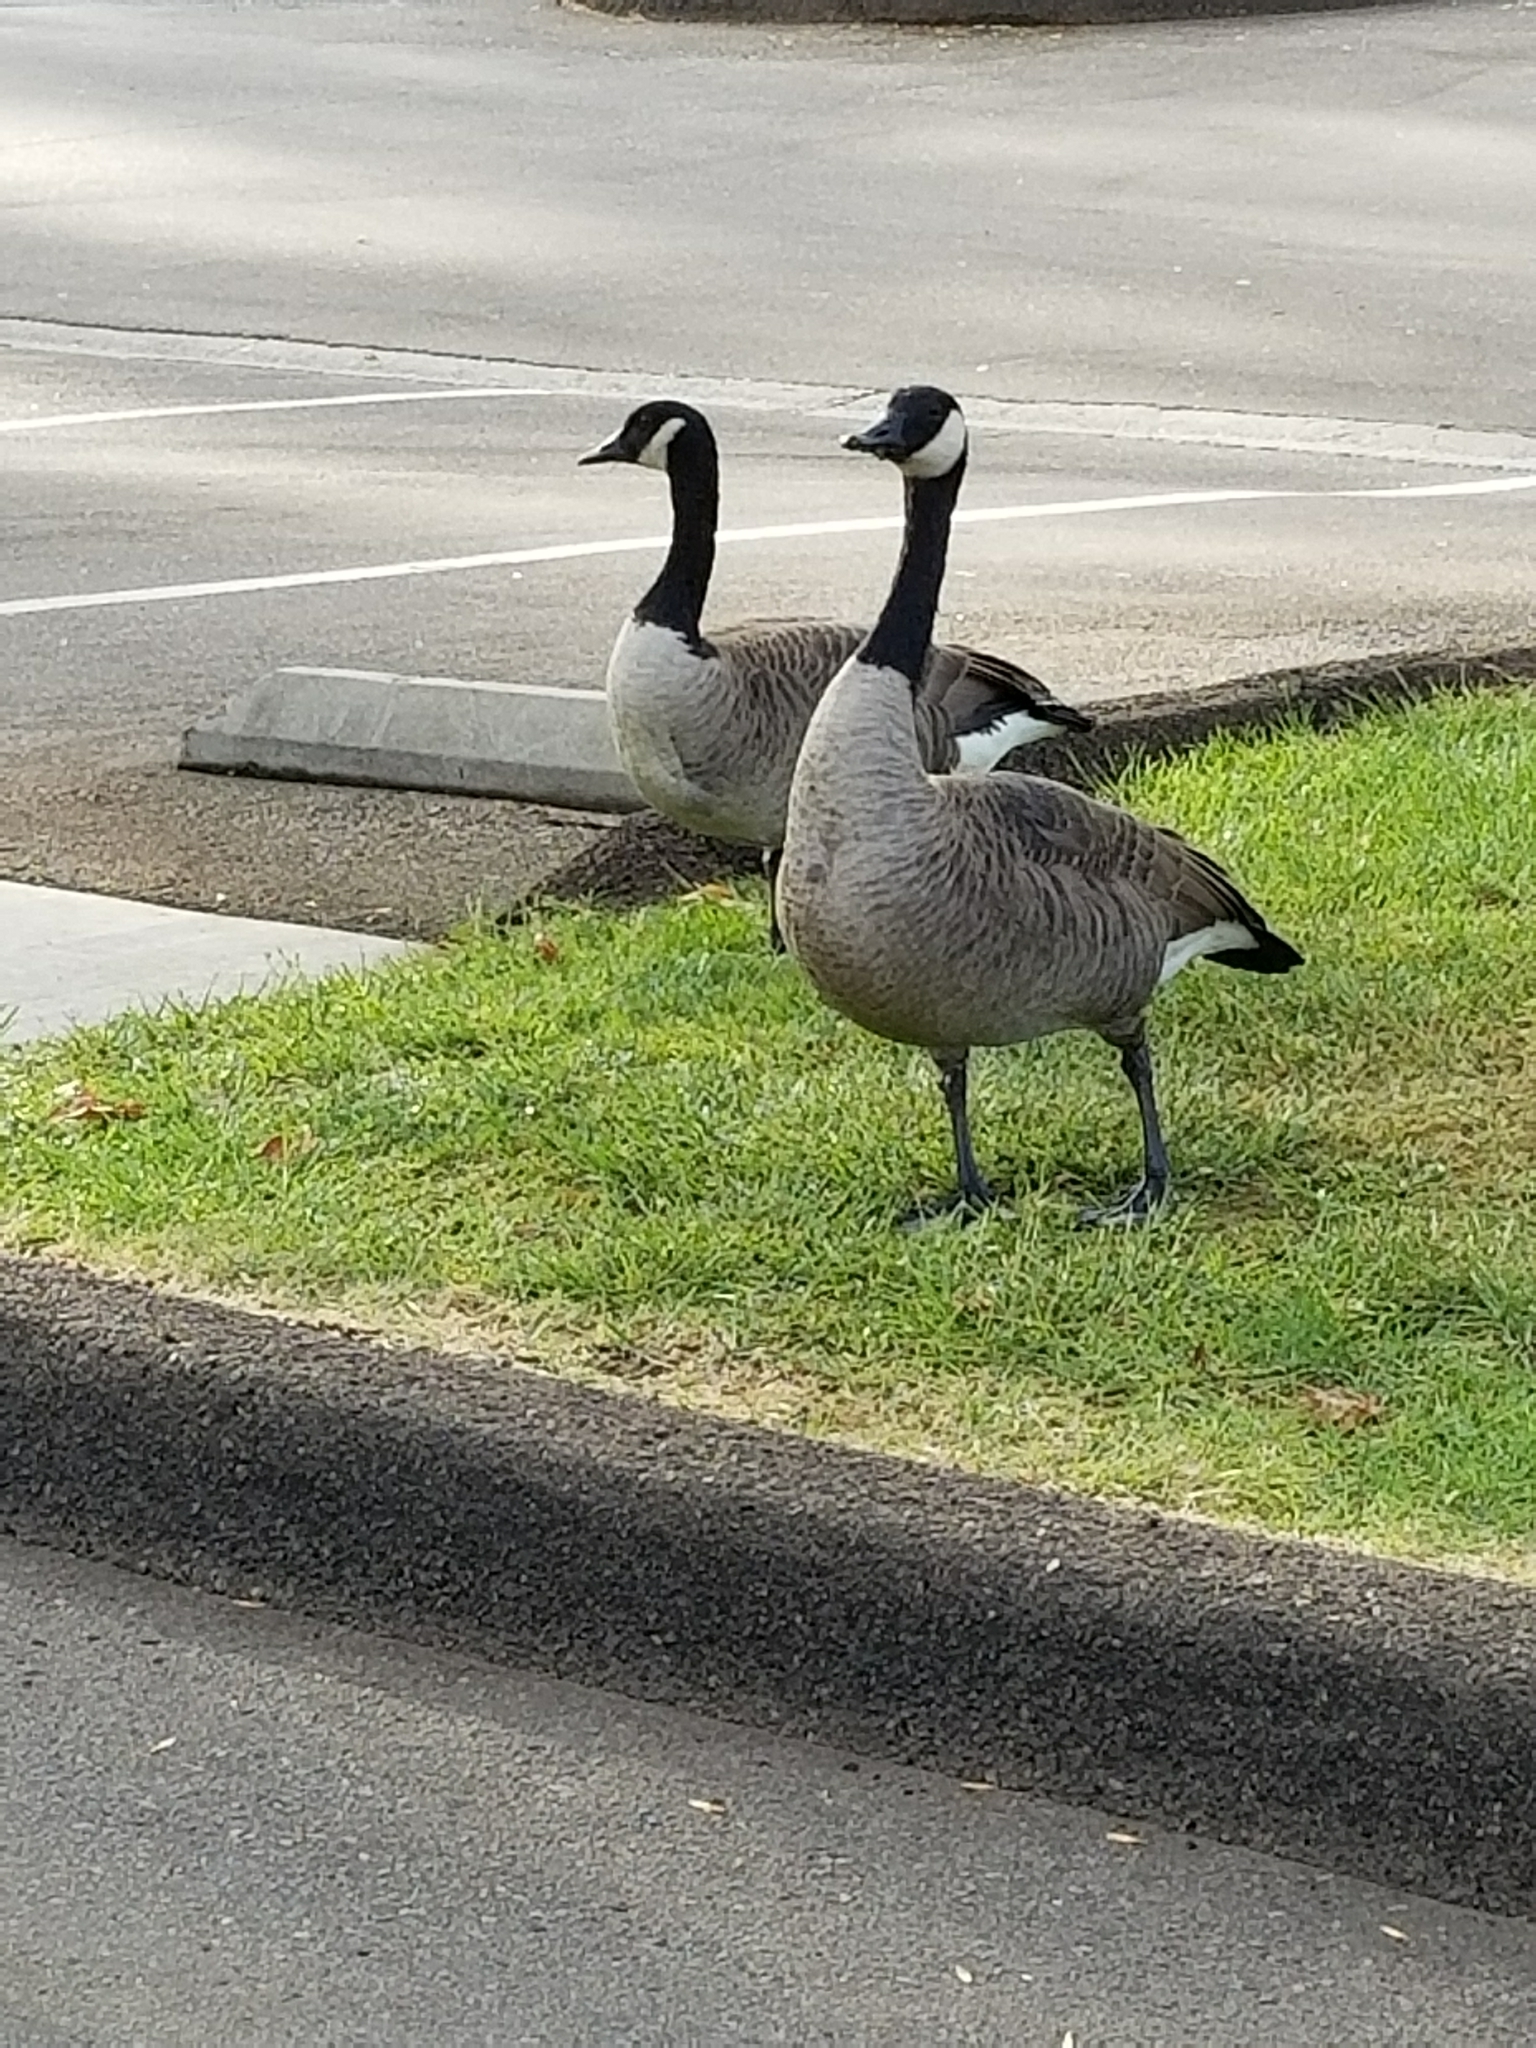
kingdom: Animalia
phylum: Chordata
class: Aves
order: Anseriformes
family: Anatidae
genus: Branta
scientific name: Branta canadensis
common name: Canada goose
